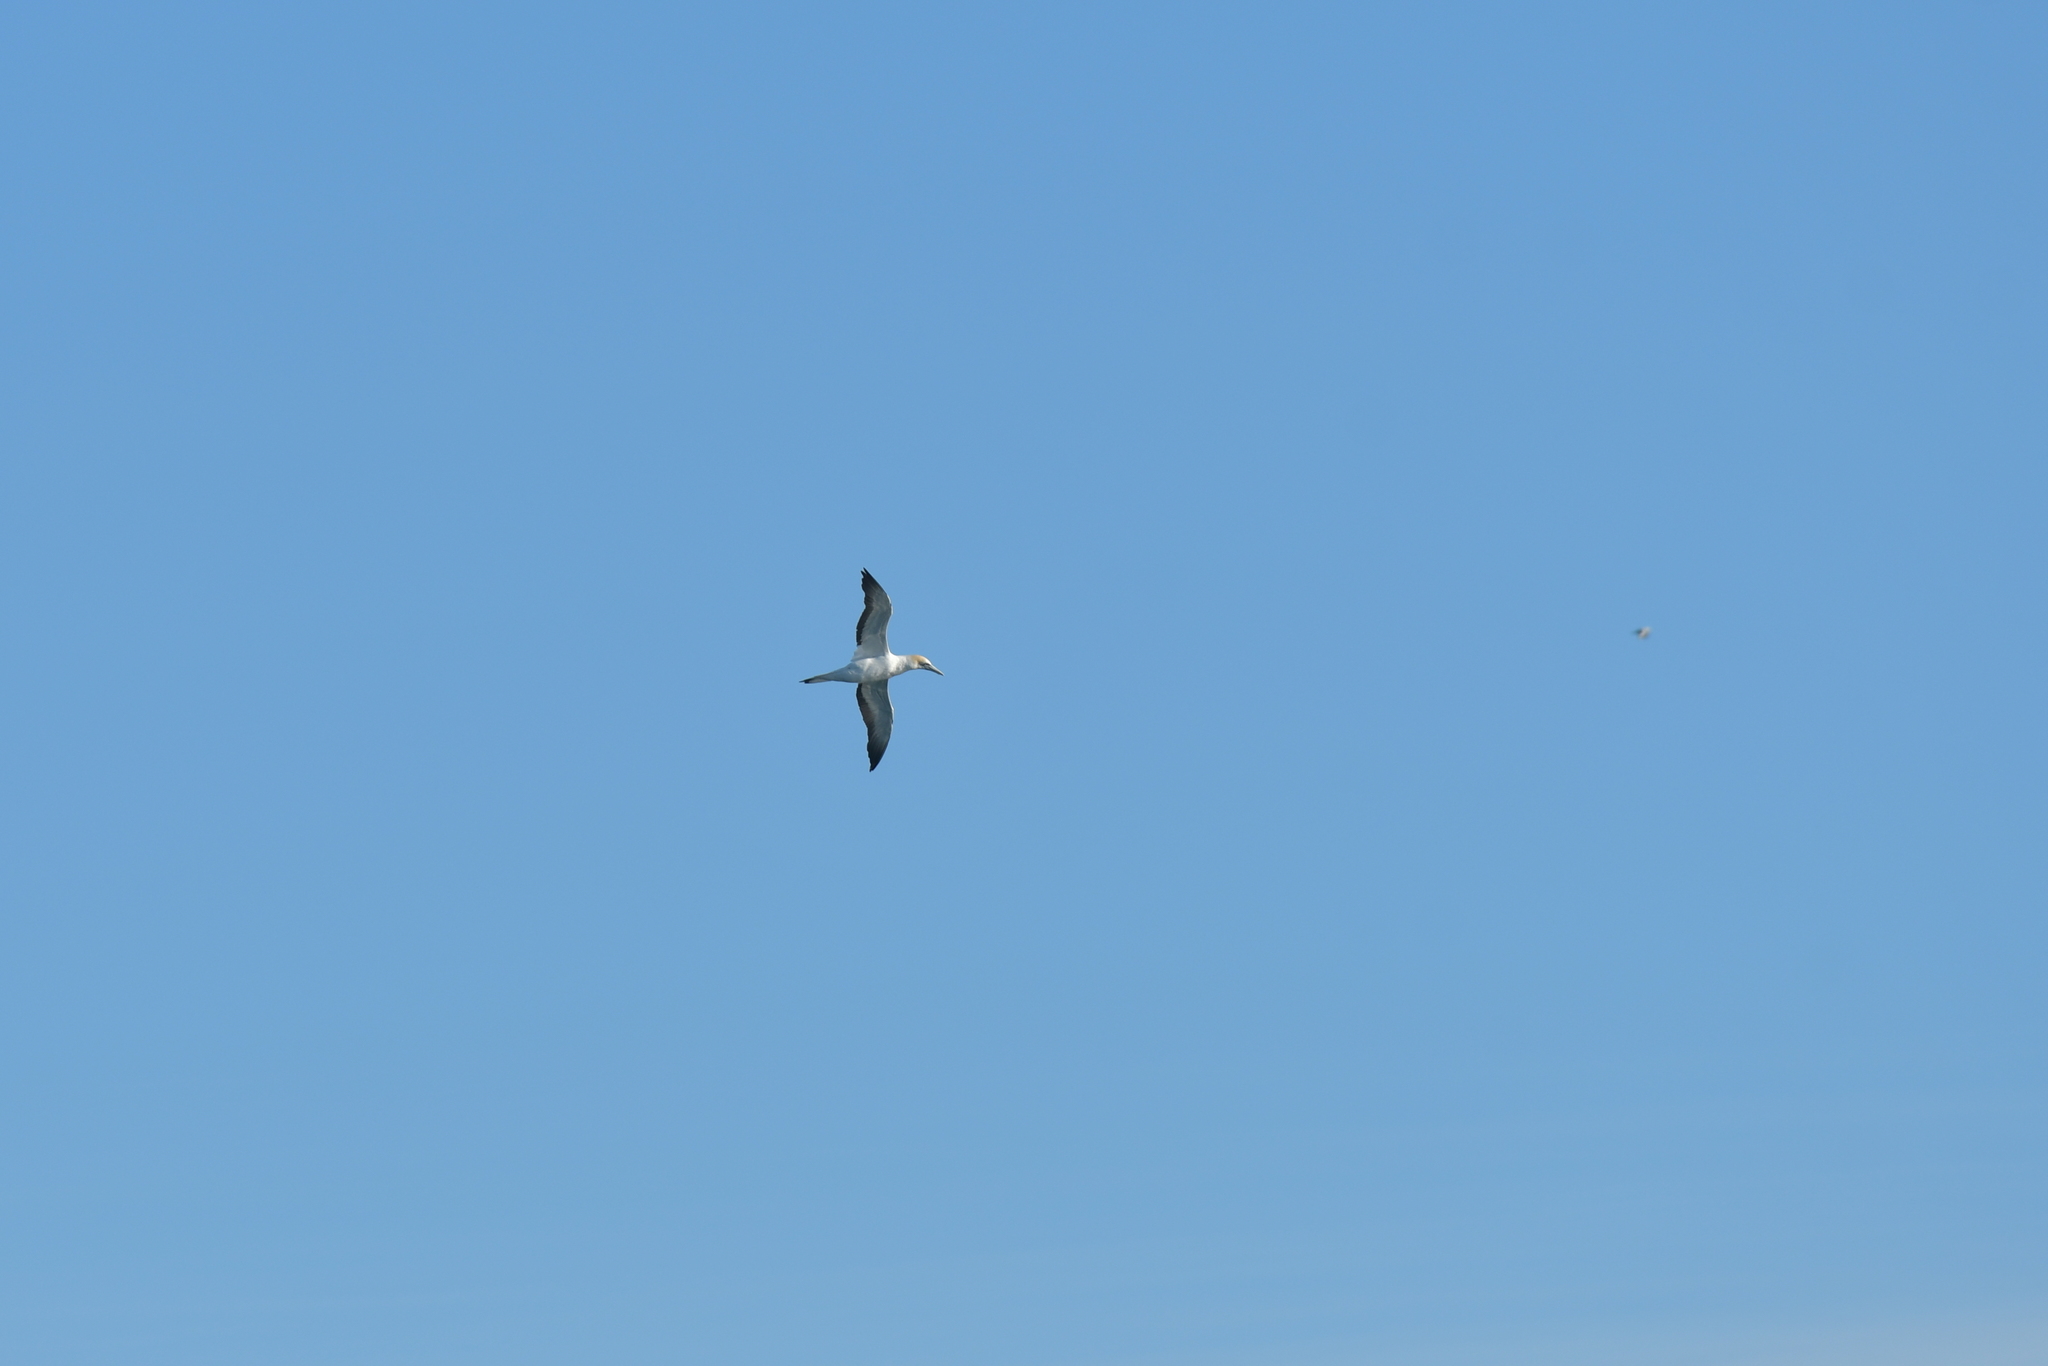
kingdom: Animalia
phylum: Chordata
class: Aves
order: Suliformes
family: Sulidae
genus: Morus
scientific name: Morus serrator
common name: Australasian gannet
